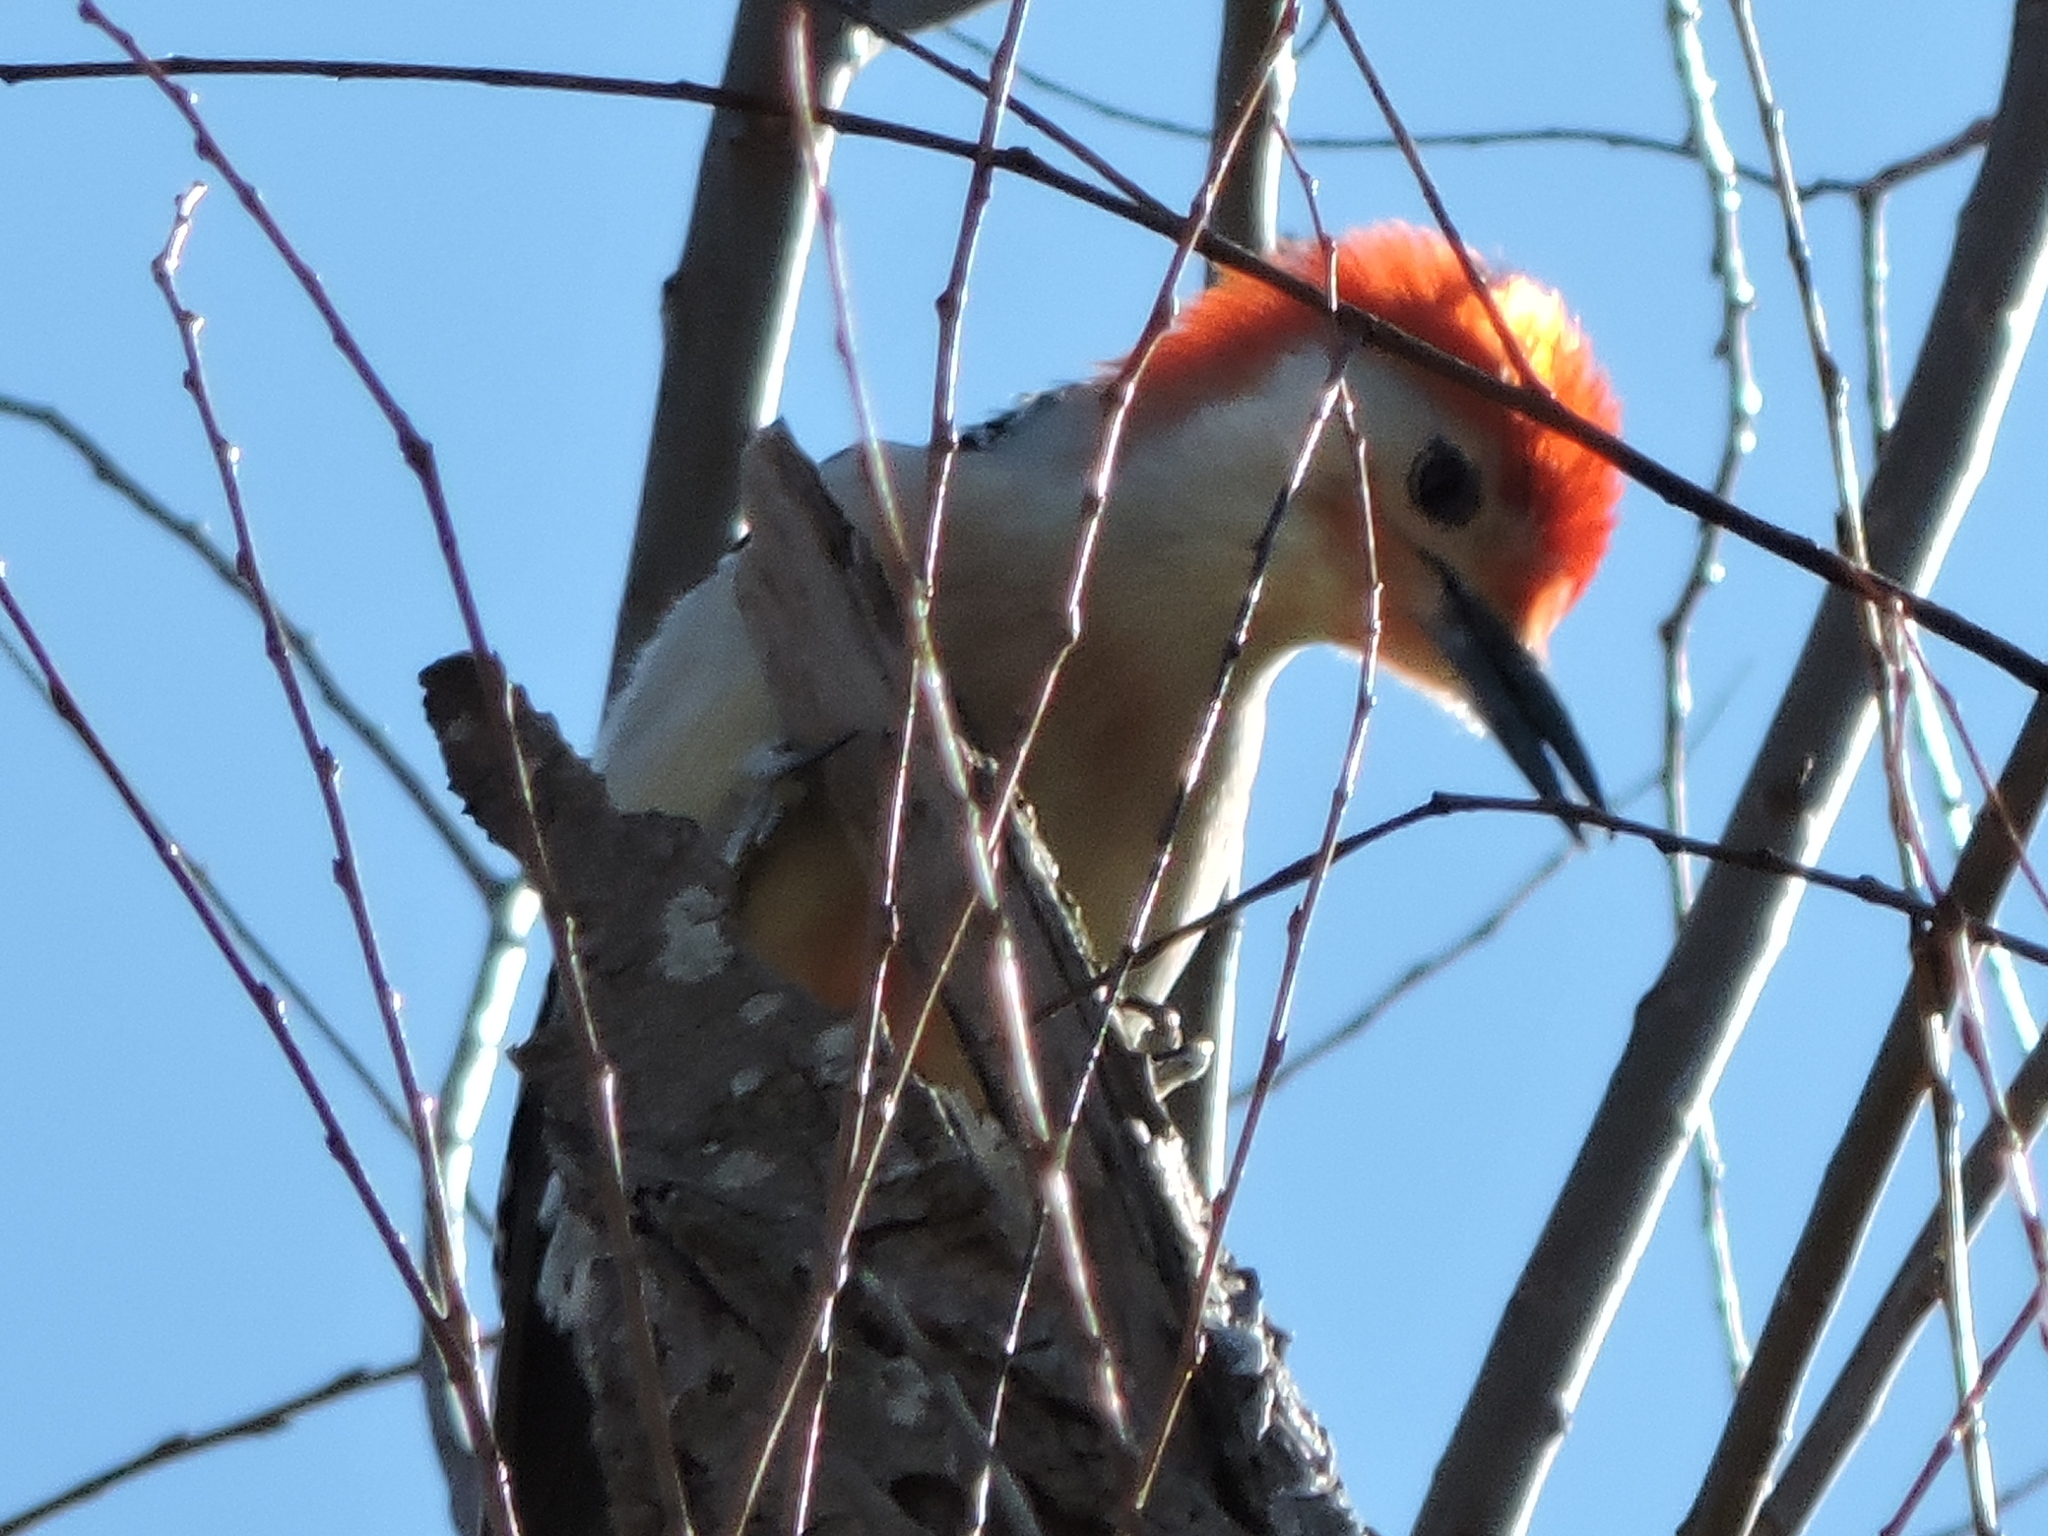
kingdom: Animalia
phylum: Chordata
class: Aves
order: Piciformes
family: Picidae
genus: Melanerpes
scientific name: Melanerpes carolinus
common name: Red-bellied woodpecker
